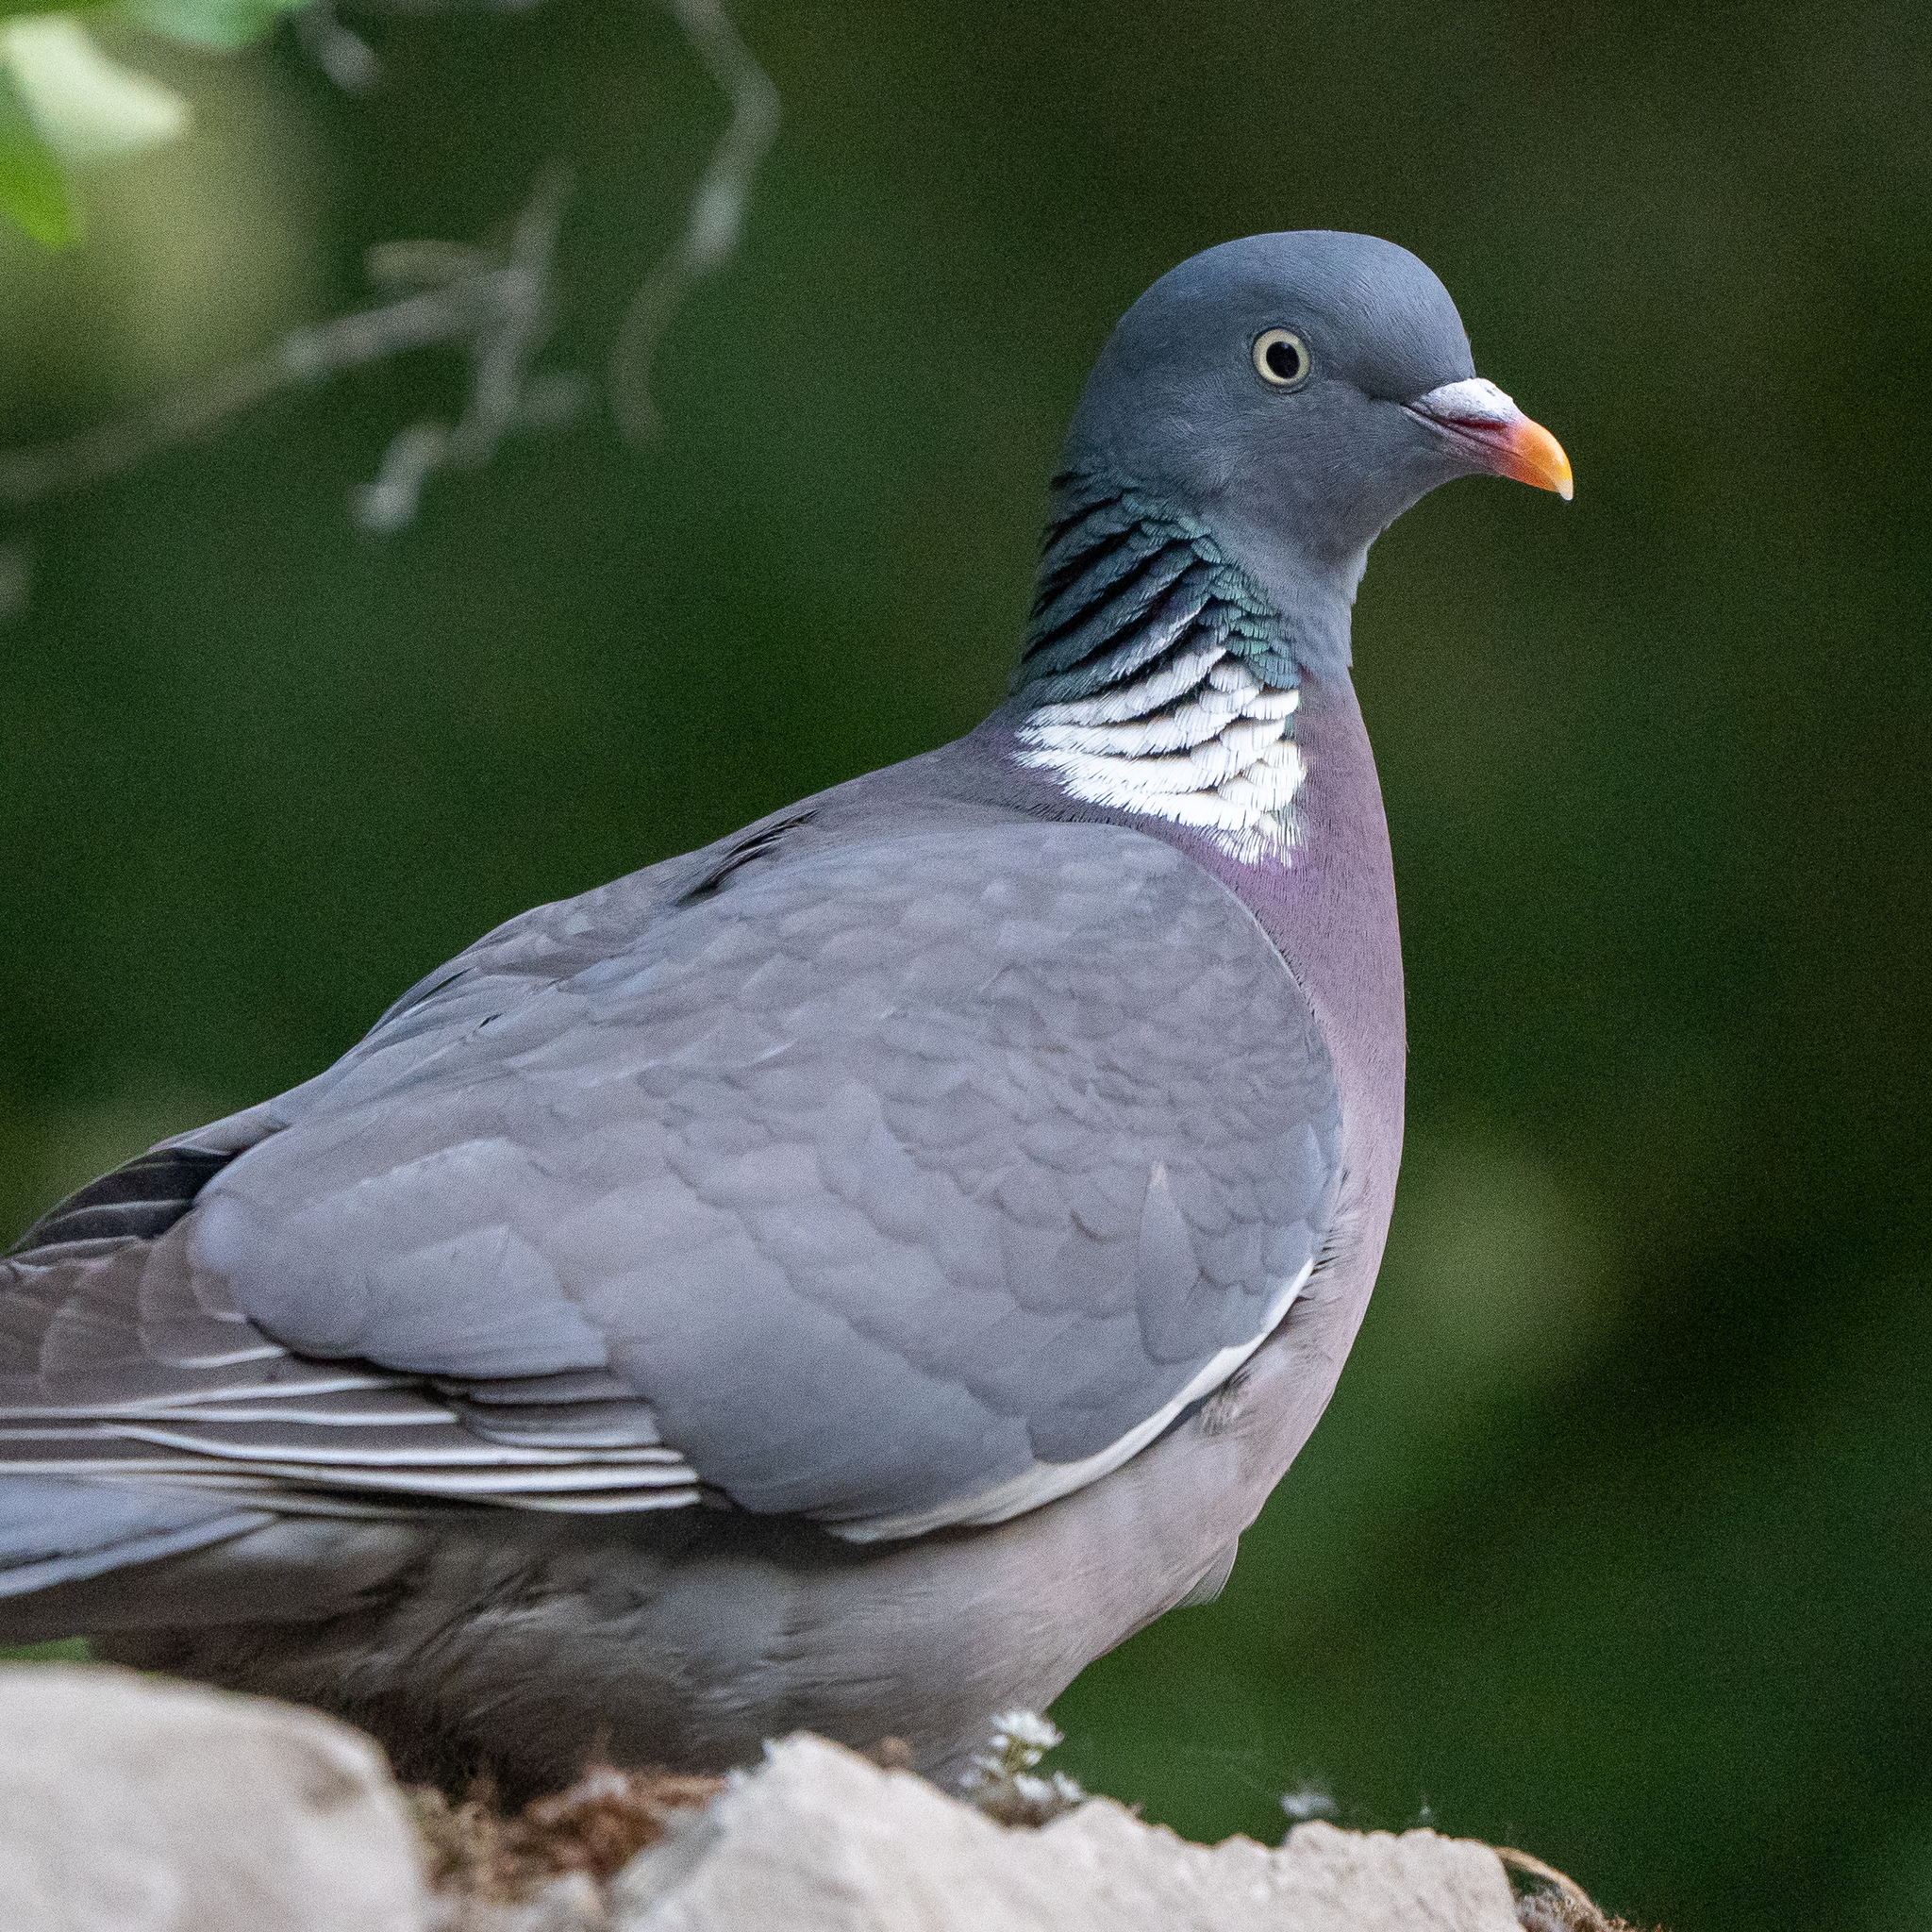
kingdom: Animalia
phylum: Chordata
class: Aves
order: Columbiformes
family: Columbidae
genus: Columba
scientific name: Columba palumbus
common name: Common wood pigeon
